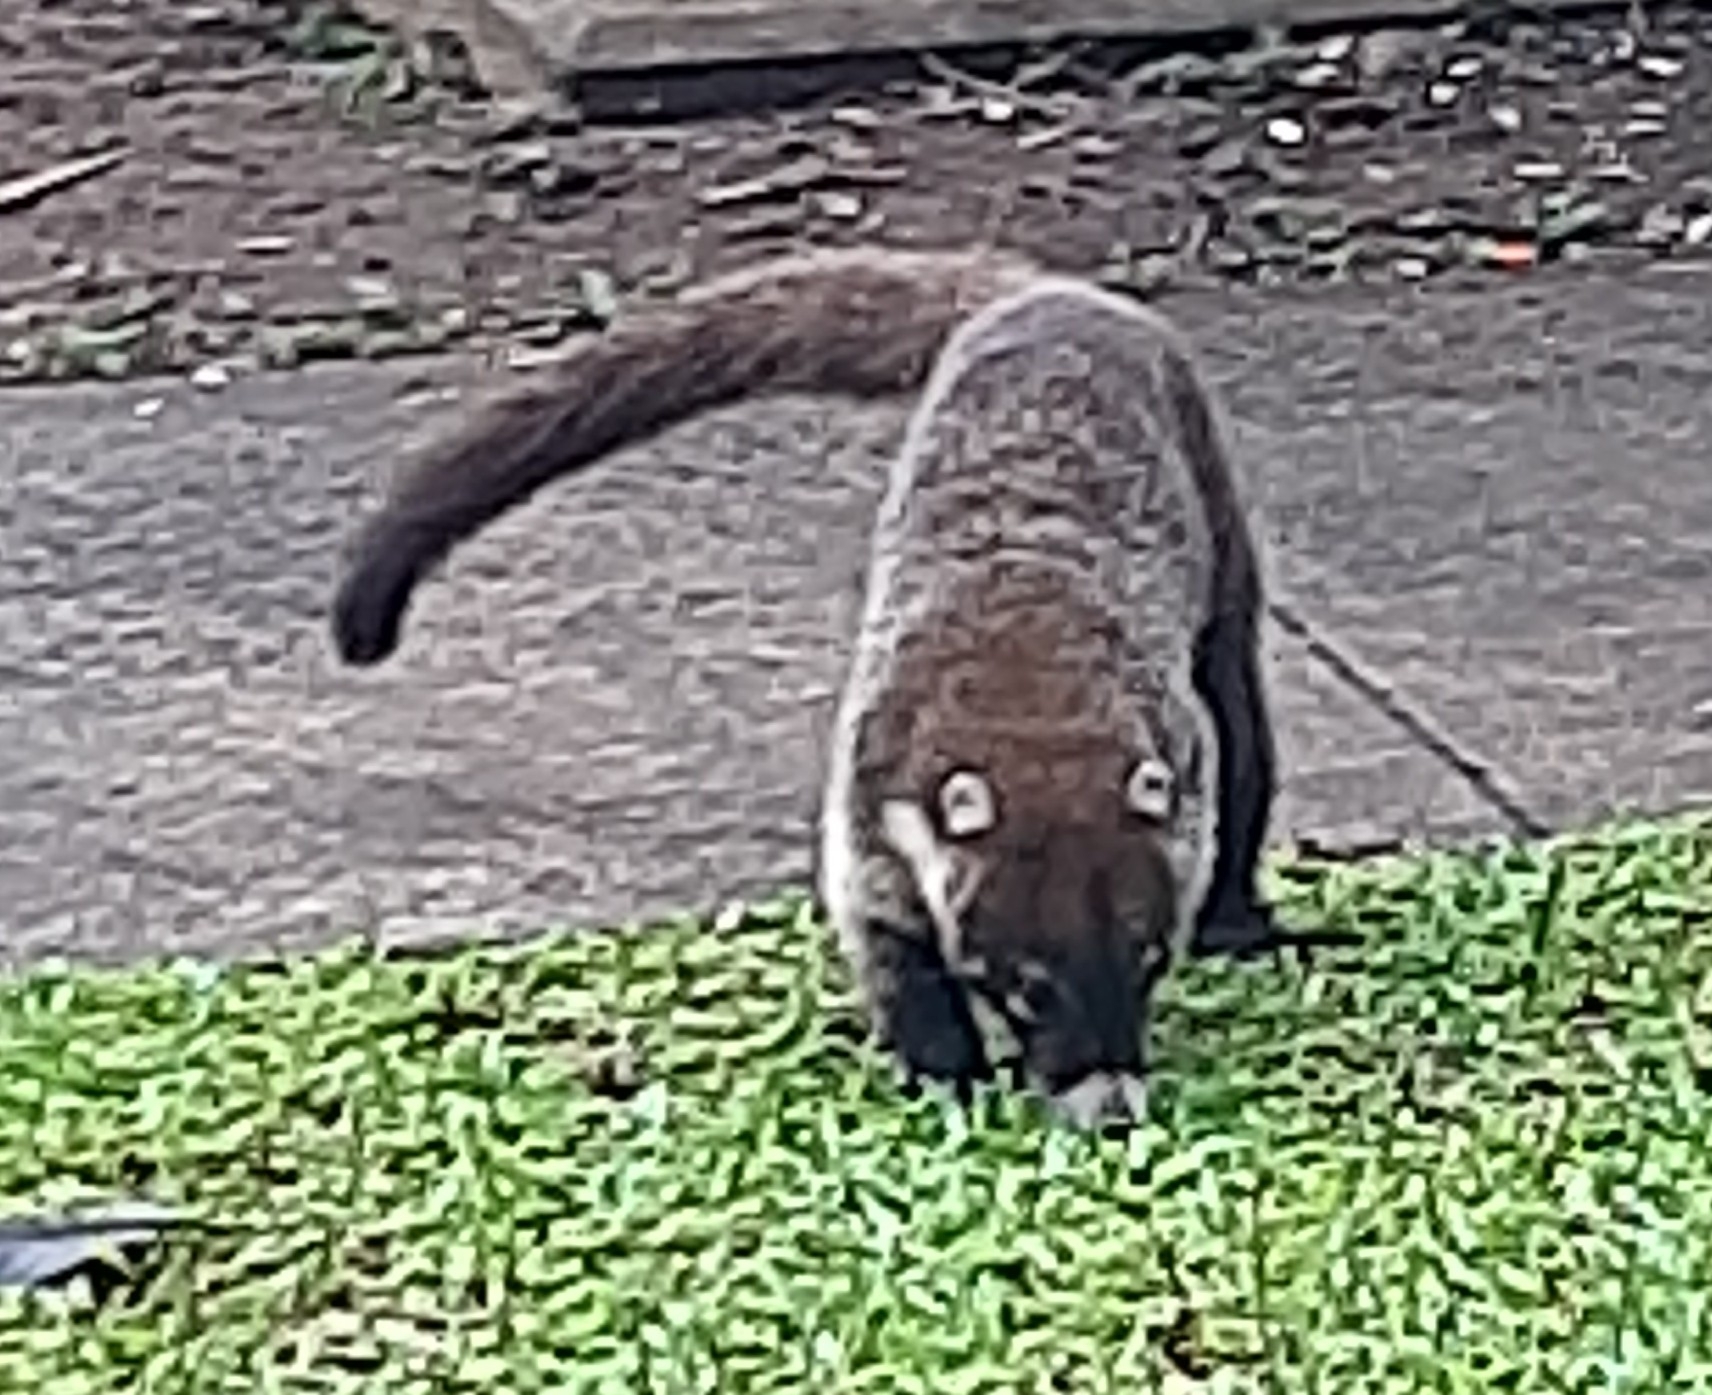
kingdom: Animalia
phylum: Chordata
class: Mammalia
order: Carnivora
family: Procyonidae
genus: Nasua
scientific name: Nasua narica
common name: White-nosed coati
